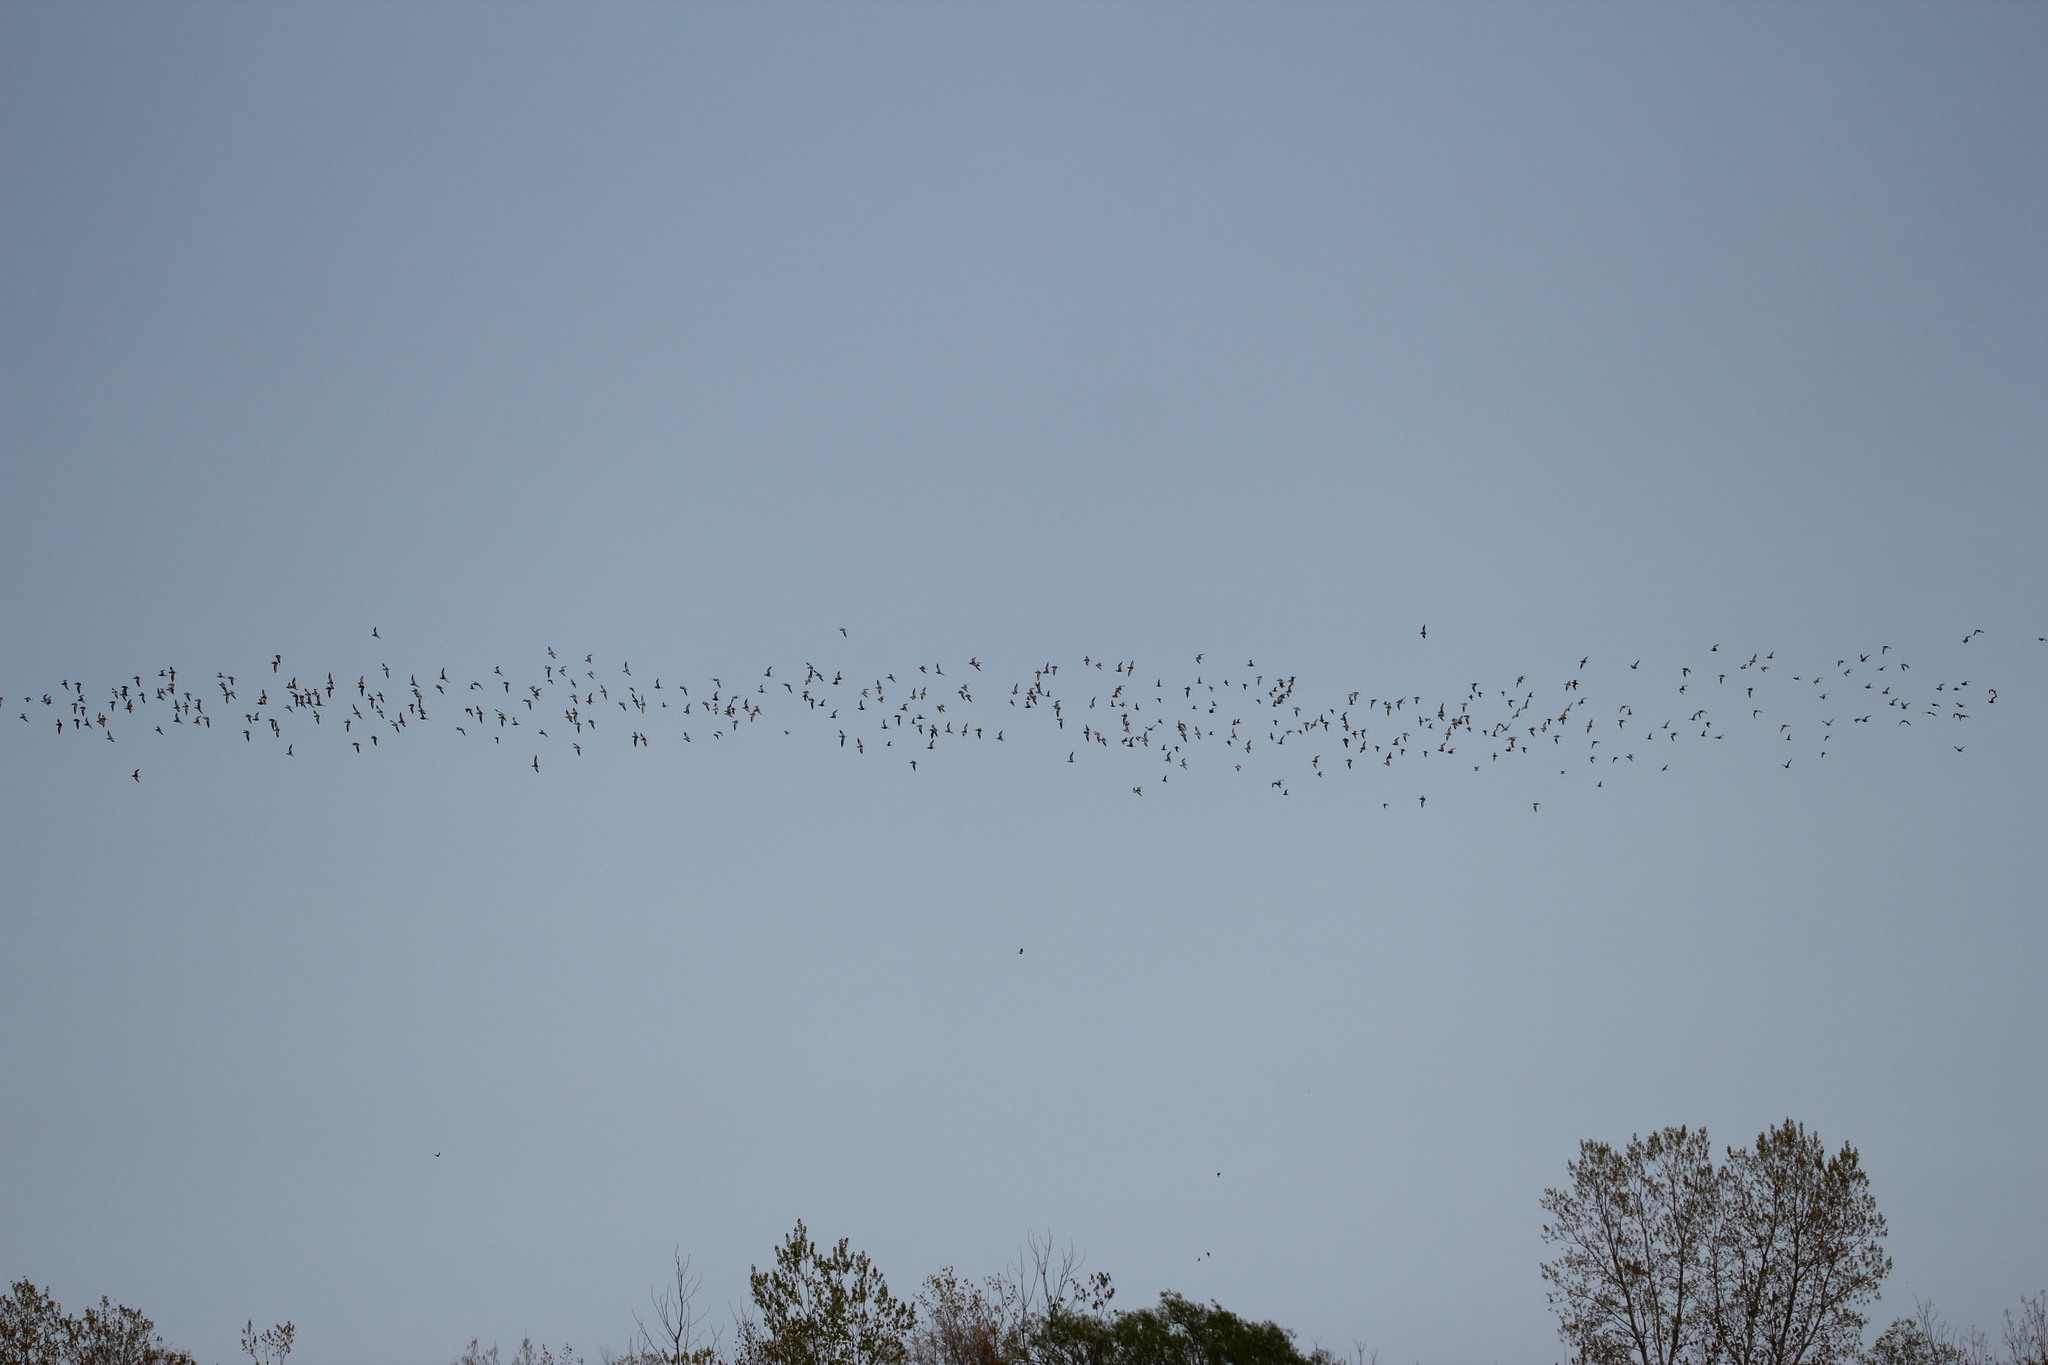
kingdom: Animalia
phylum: Chordata
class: Aves
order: Charadriiformes
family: Charadriidae
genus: Pluvialis
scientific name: Pluvialis squatarola
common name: Grey plover
